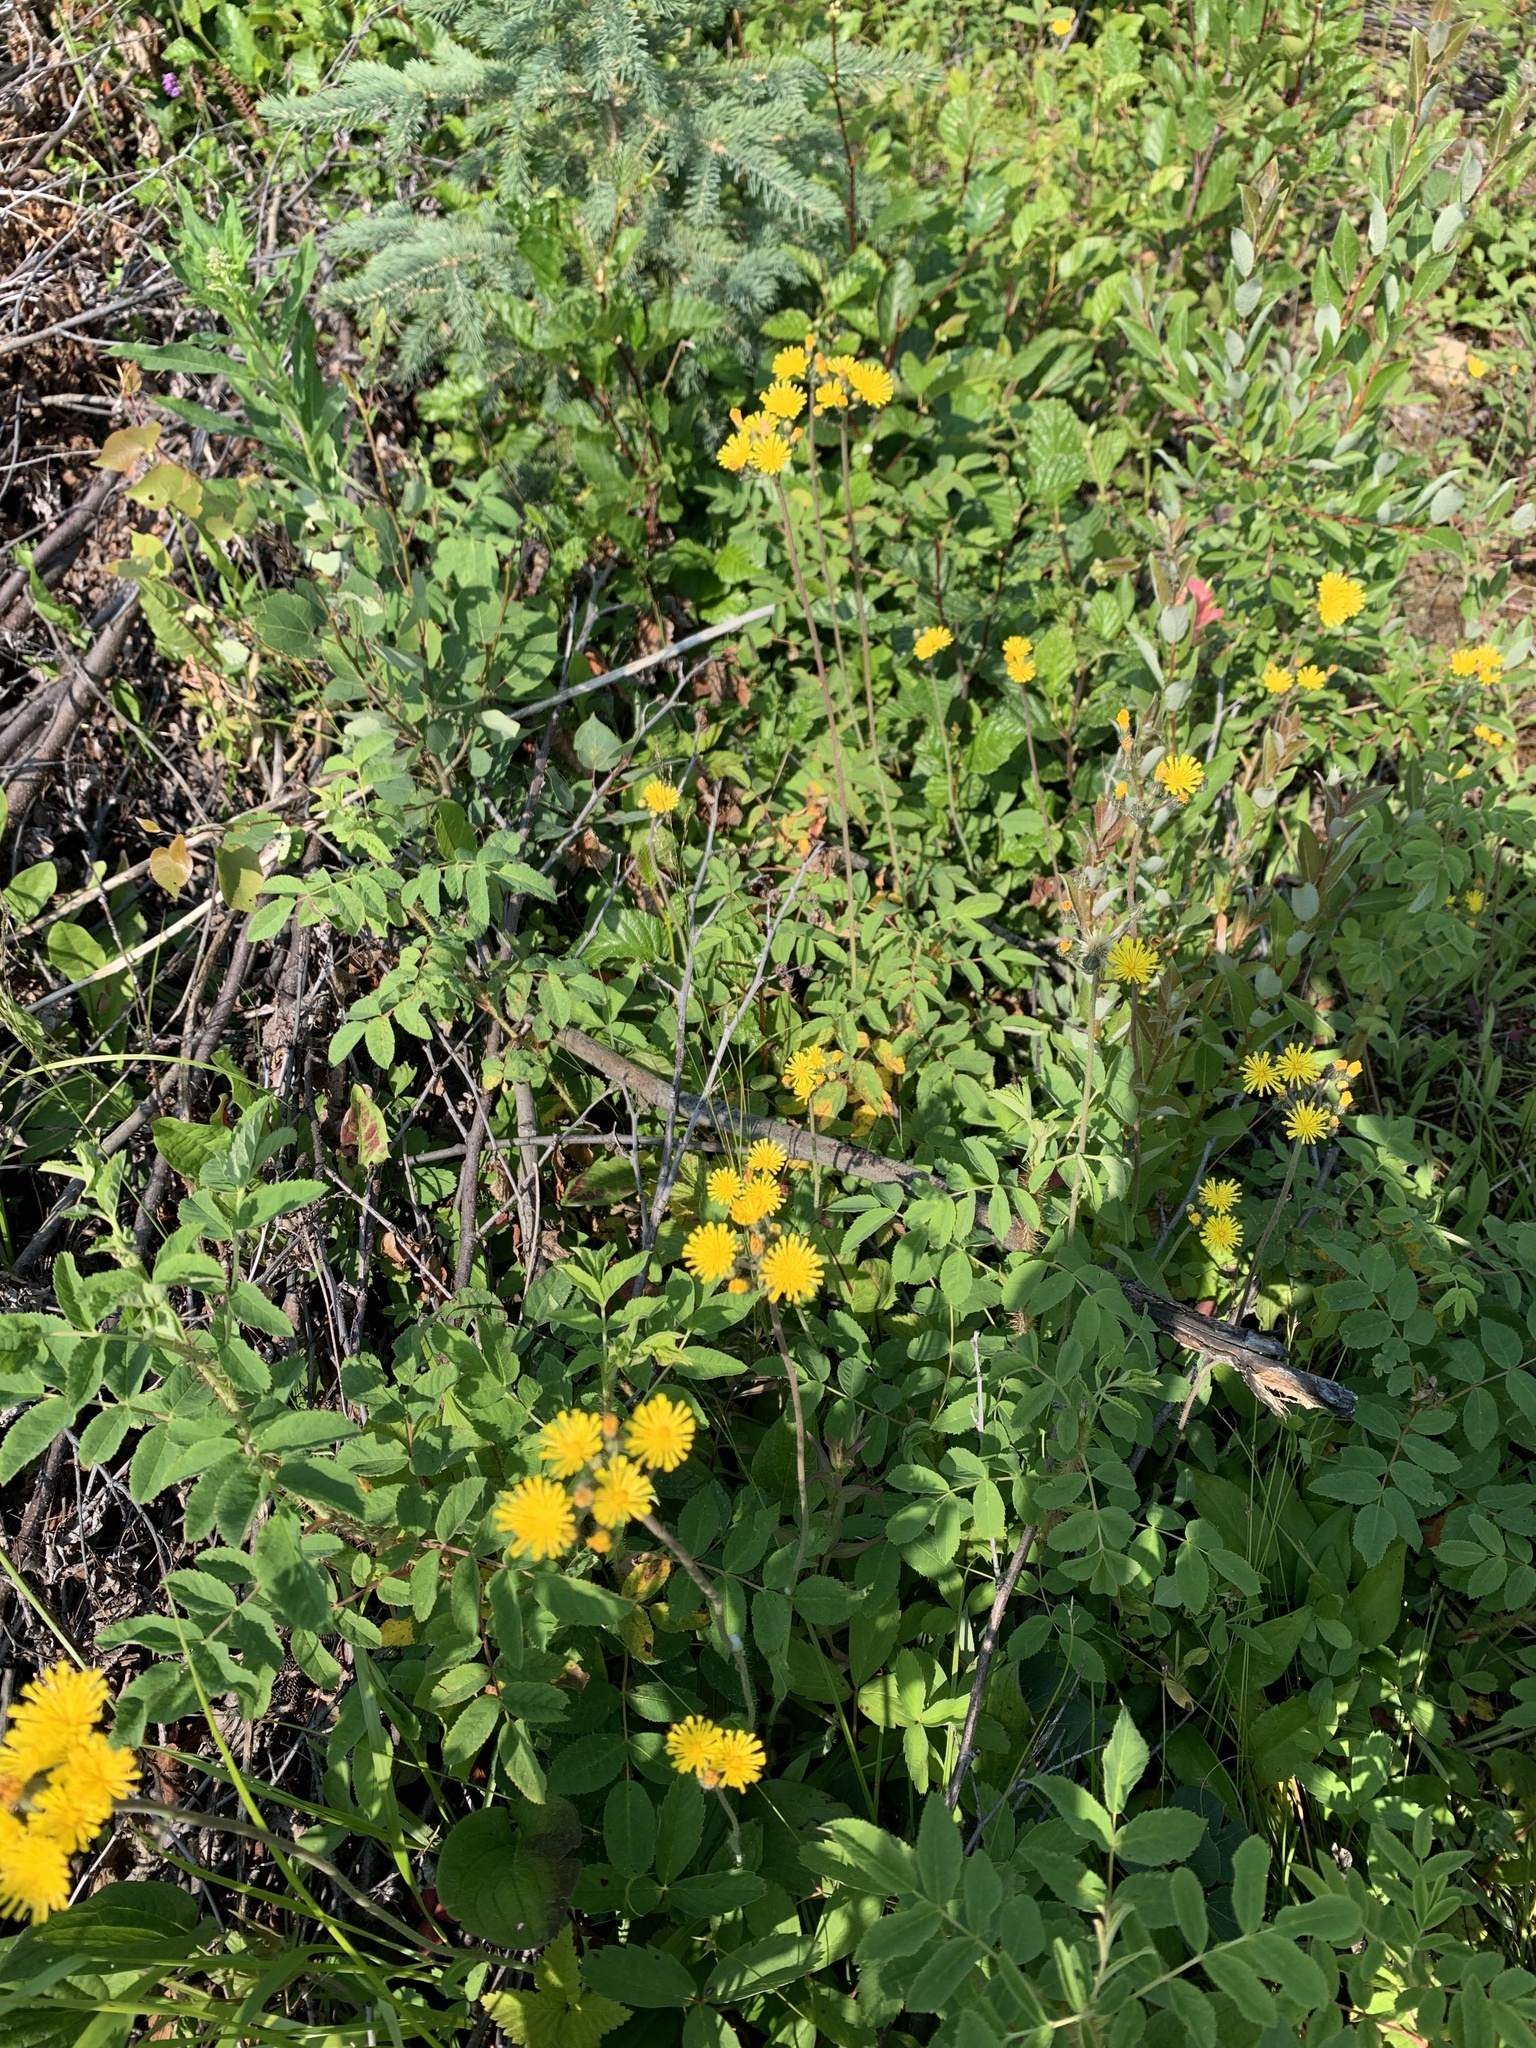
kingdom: Plantae
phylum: Tracheophyta
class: Magnoliopsida
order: Asterales
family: Asteraceae
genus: Pilosella
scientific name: Pilosella caespitosa
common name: Yellow fox-and-cubs
